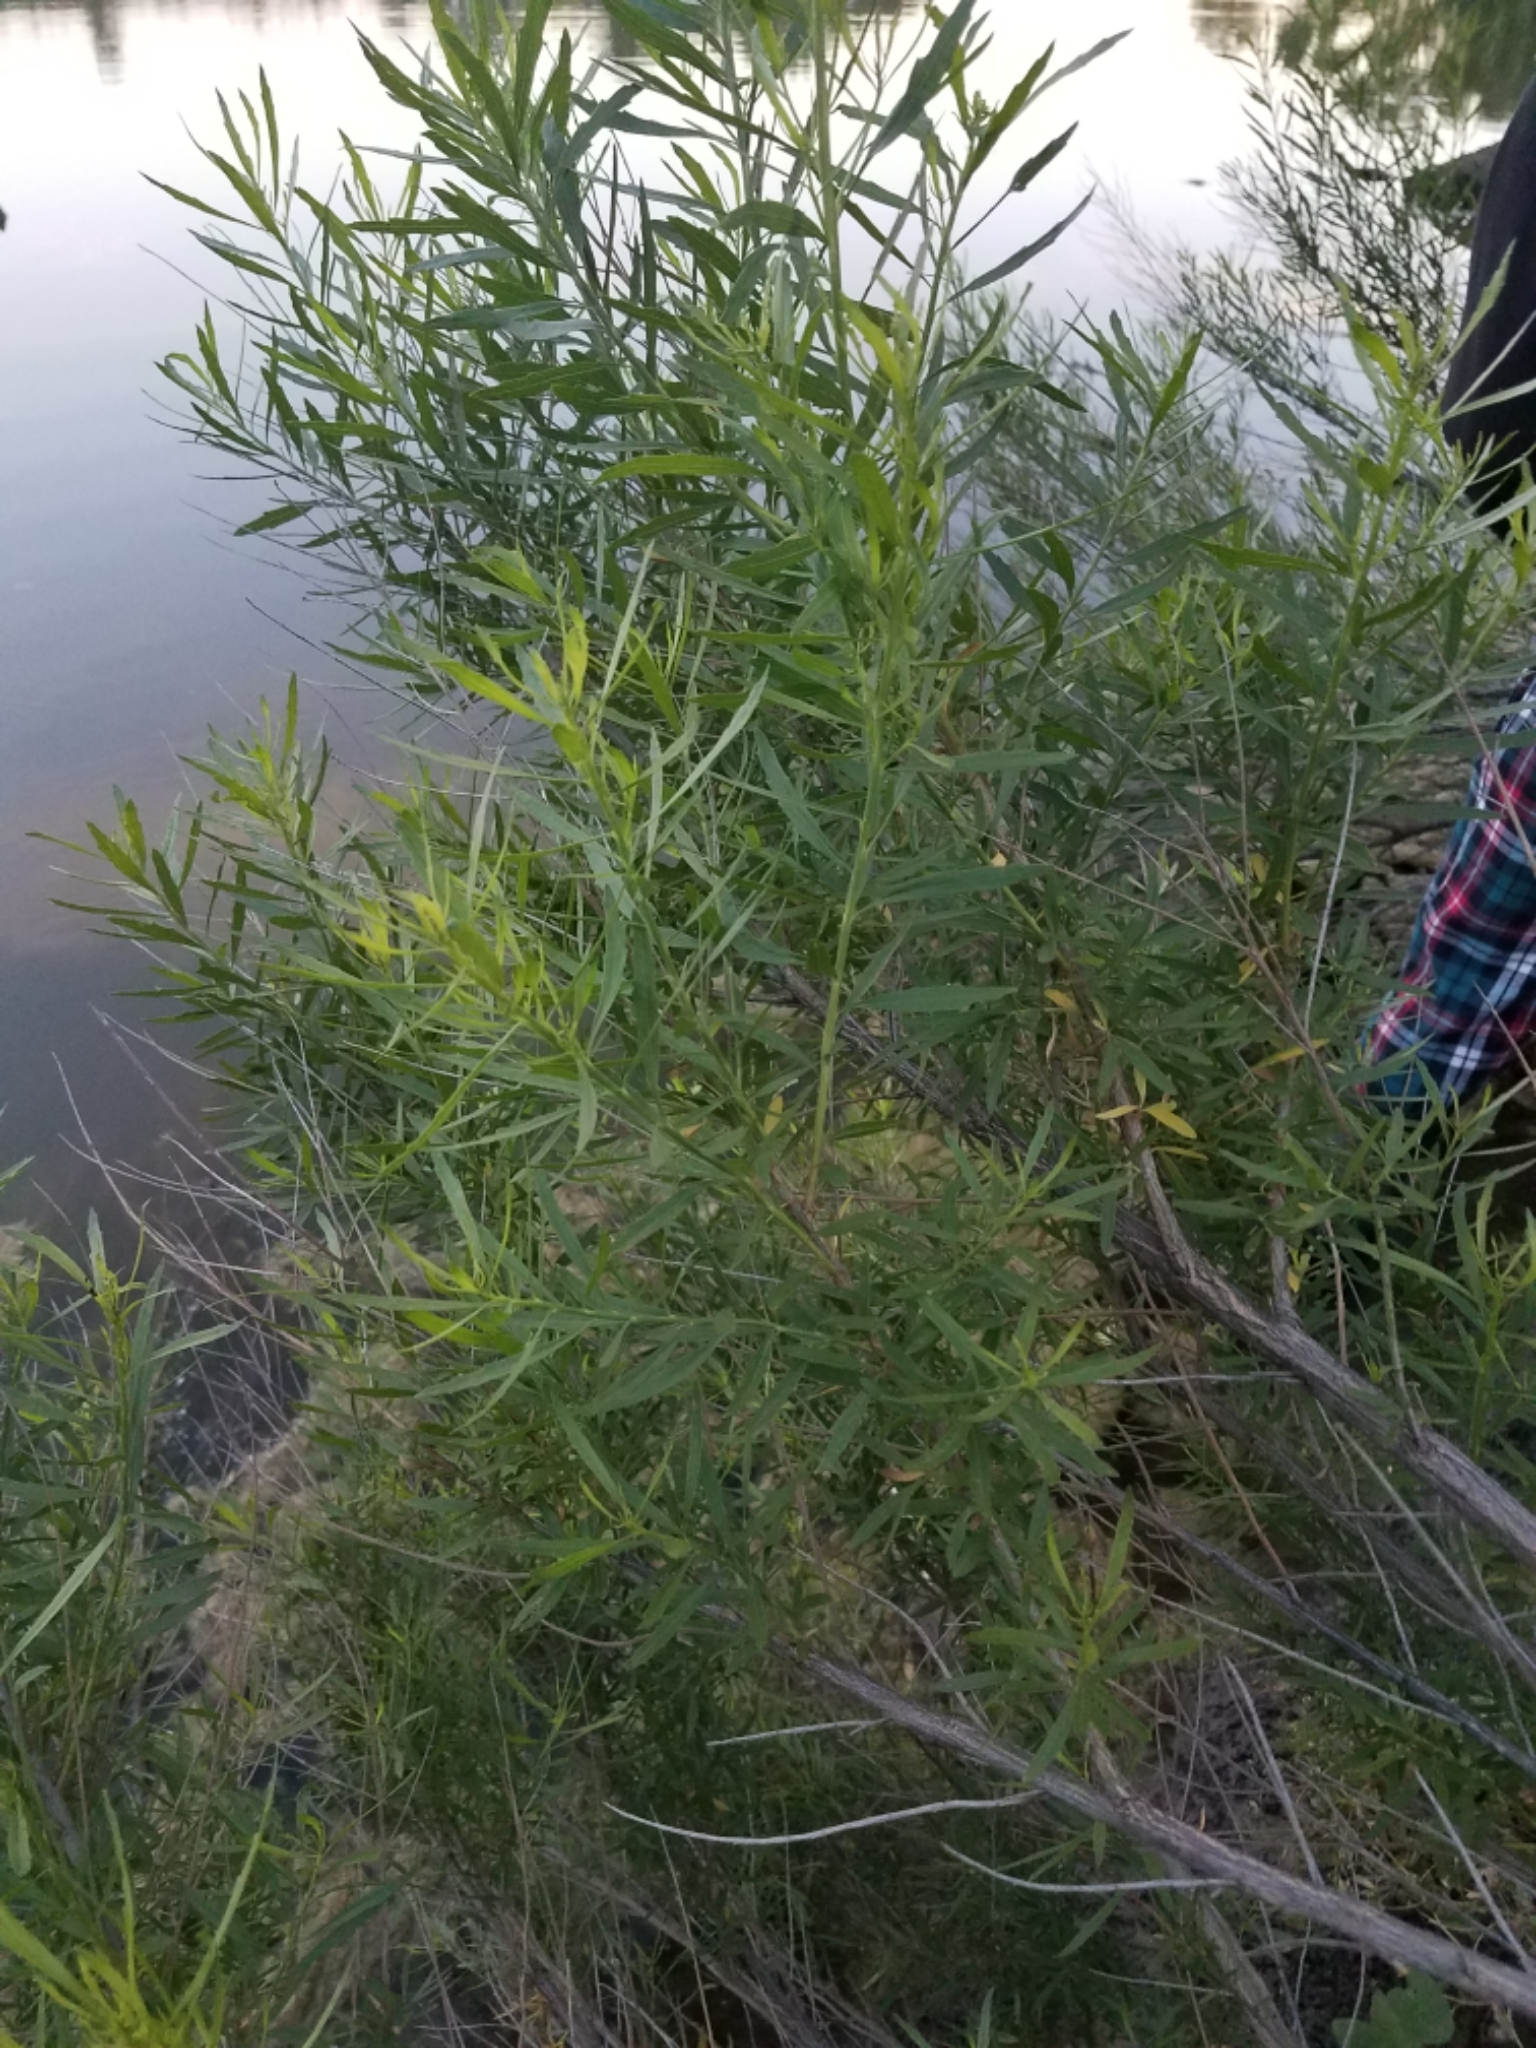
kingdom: Plantae
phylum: Tracheophyta
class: Magnoliopsida
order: Malpighiales
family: Salicaceae
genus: Salix
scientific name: Salix nigra
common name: Black willow
